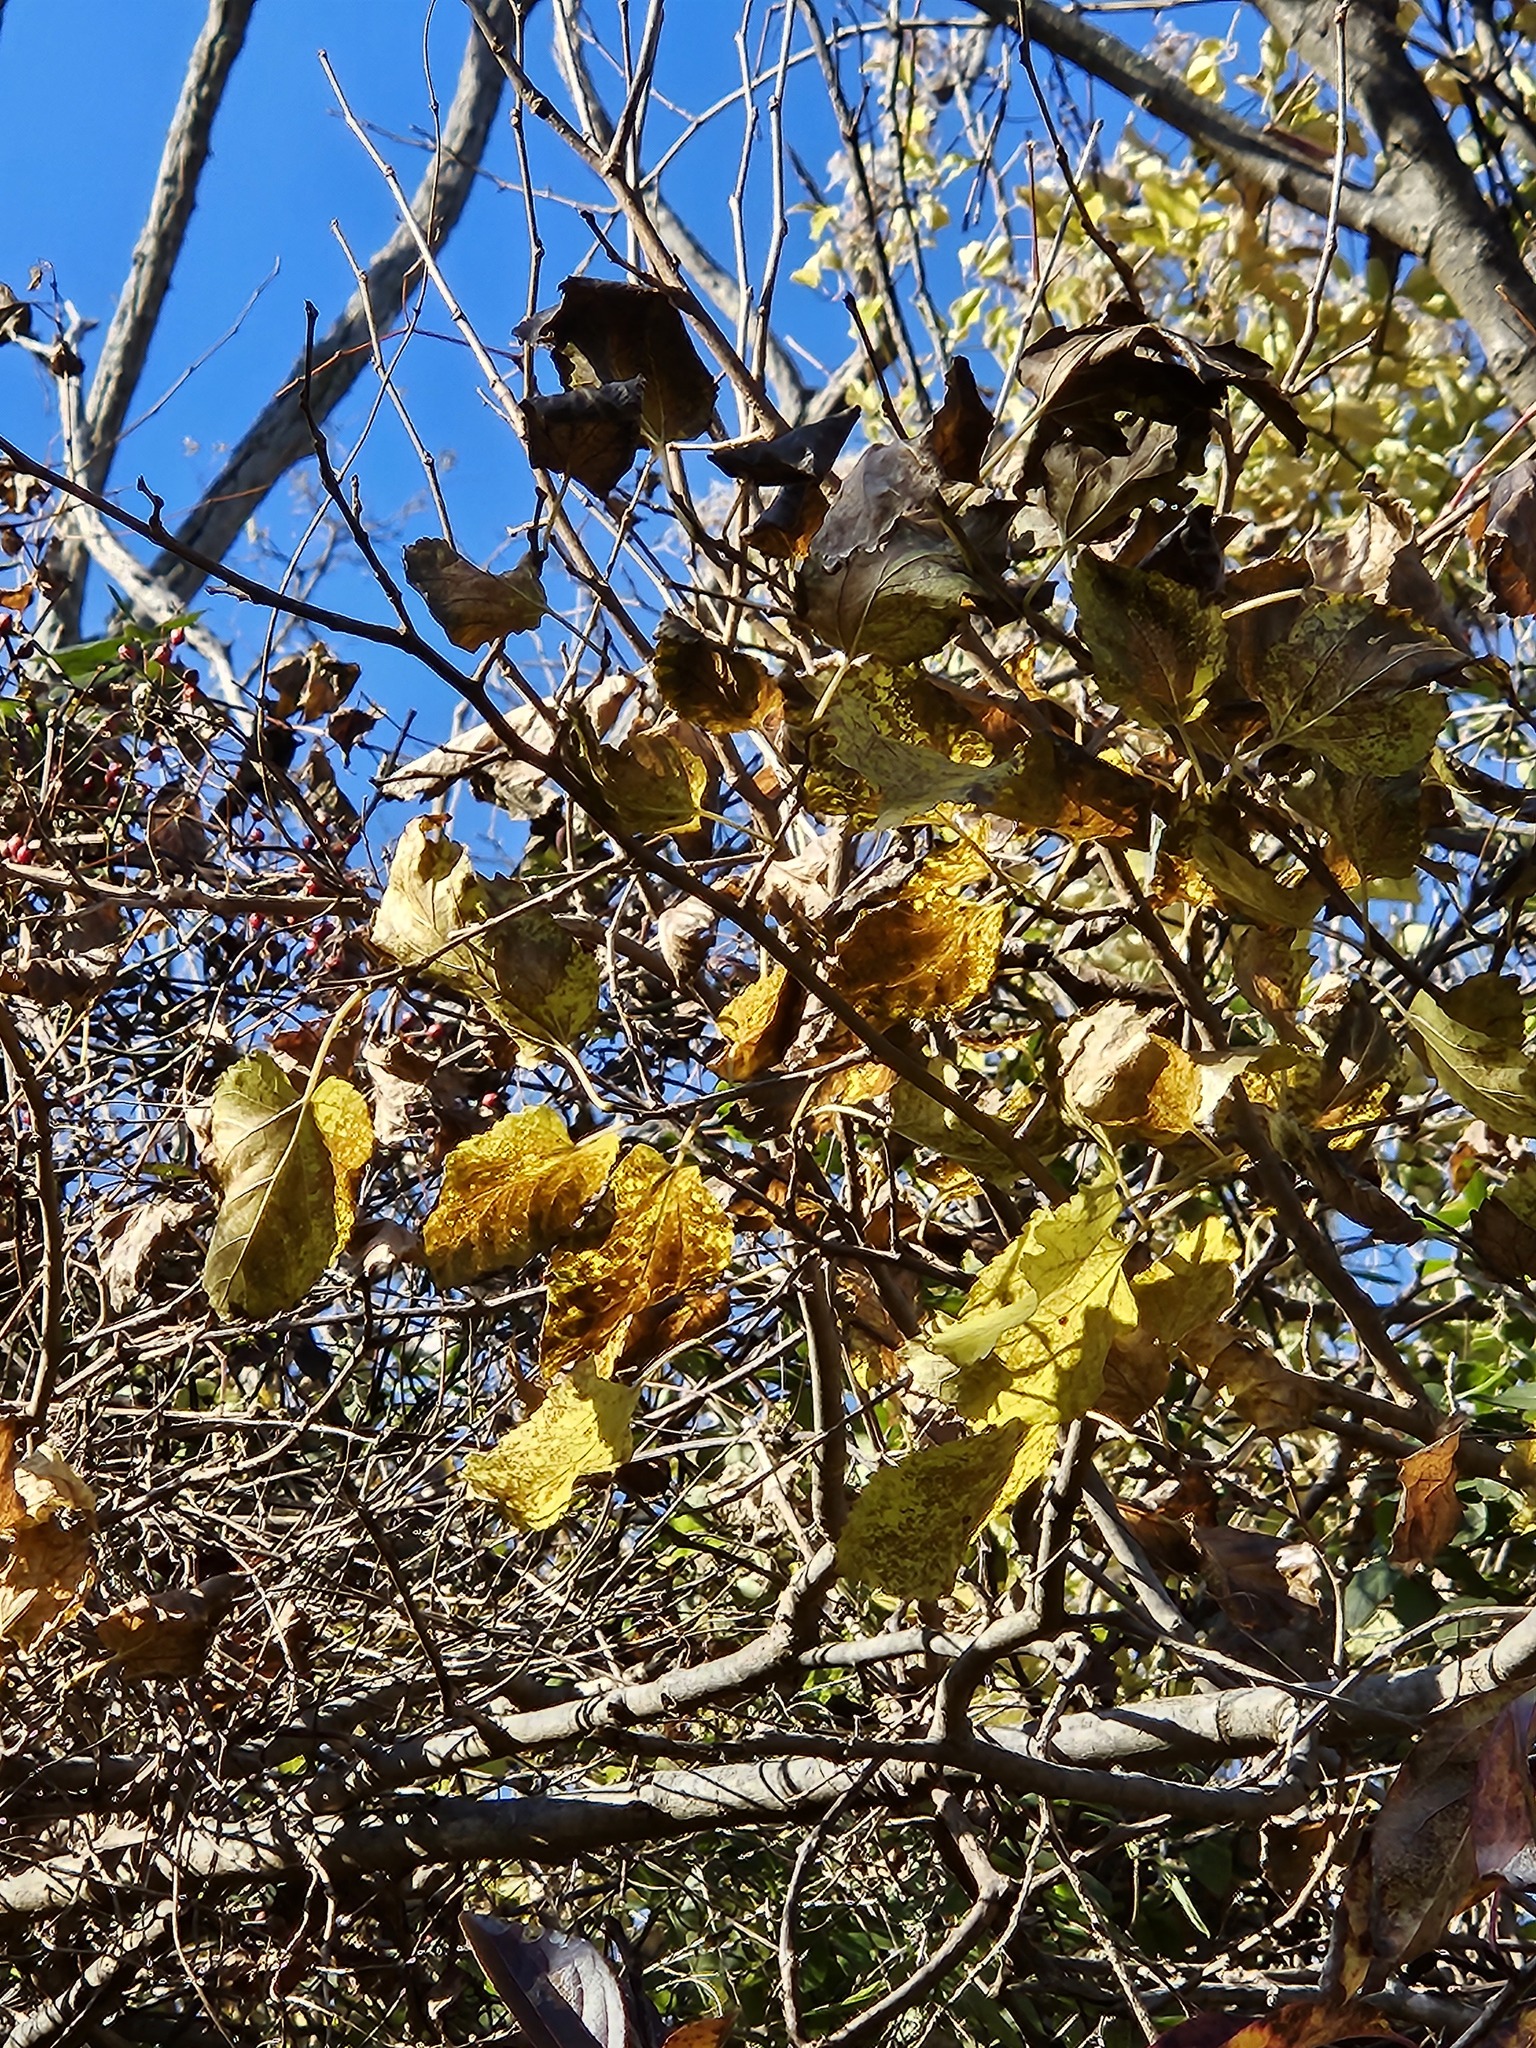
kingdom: Plantae
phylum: Tracheophyta
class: Magnoliopsida
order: Rosales
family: Moraceae
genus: Morus
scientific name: Morus alba
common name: White mulberry
